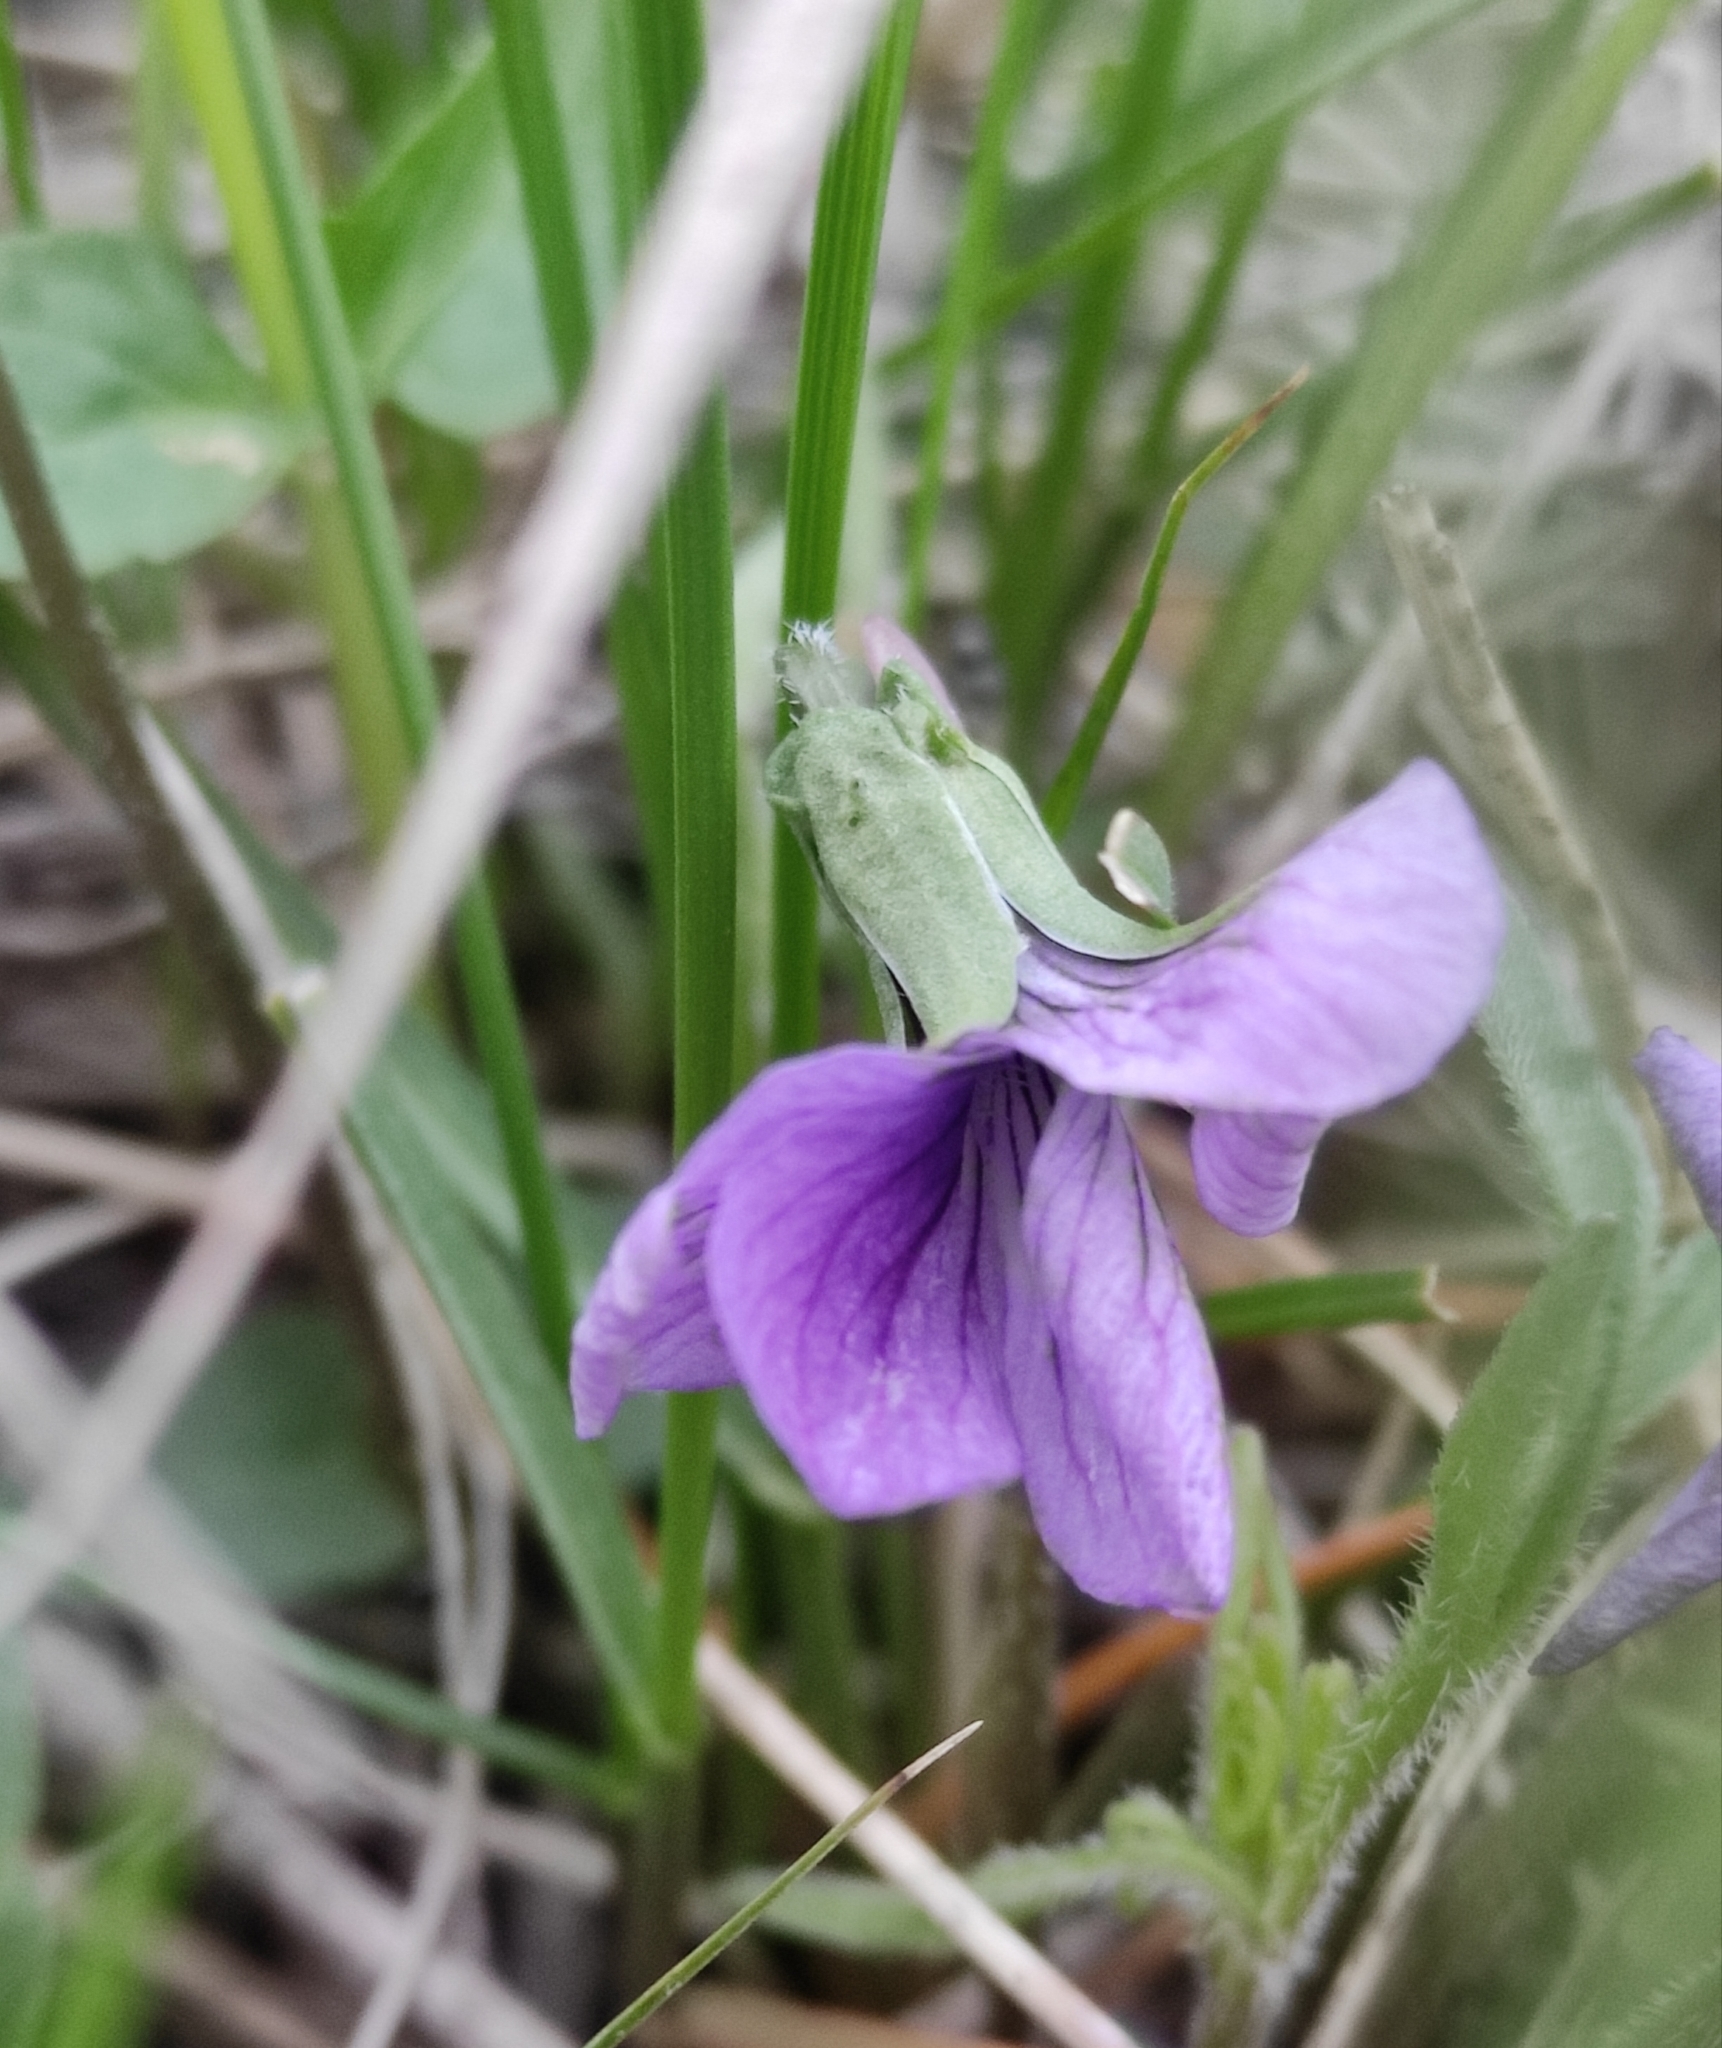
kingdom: Plantae
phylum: Tracheophyta
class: Magnoliopsida
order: Malpighiales
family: Violaceae
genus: Viola
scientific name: Viola multifida
